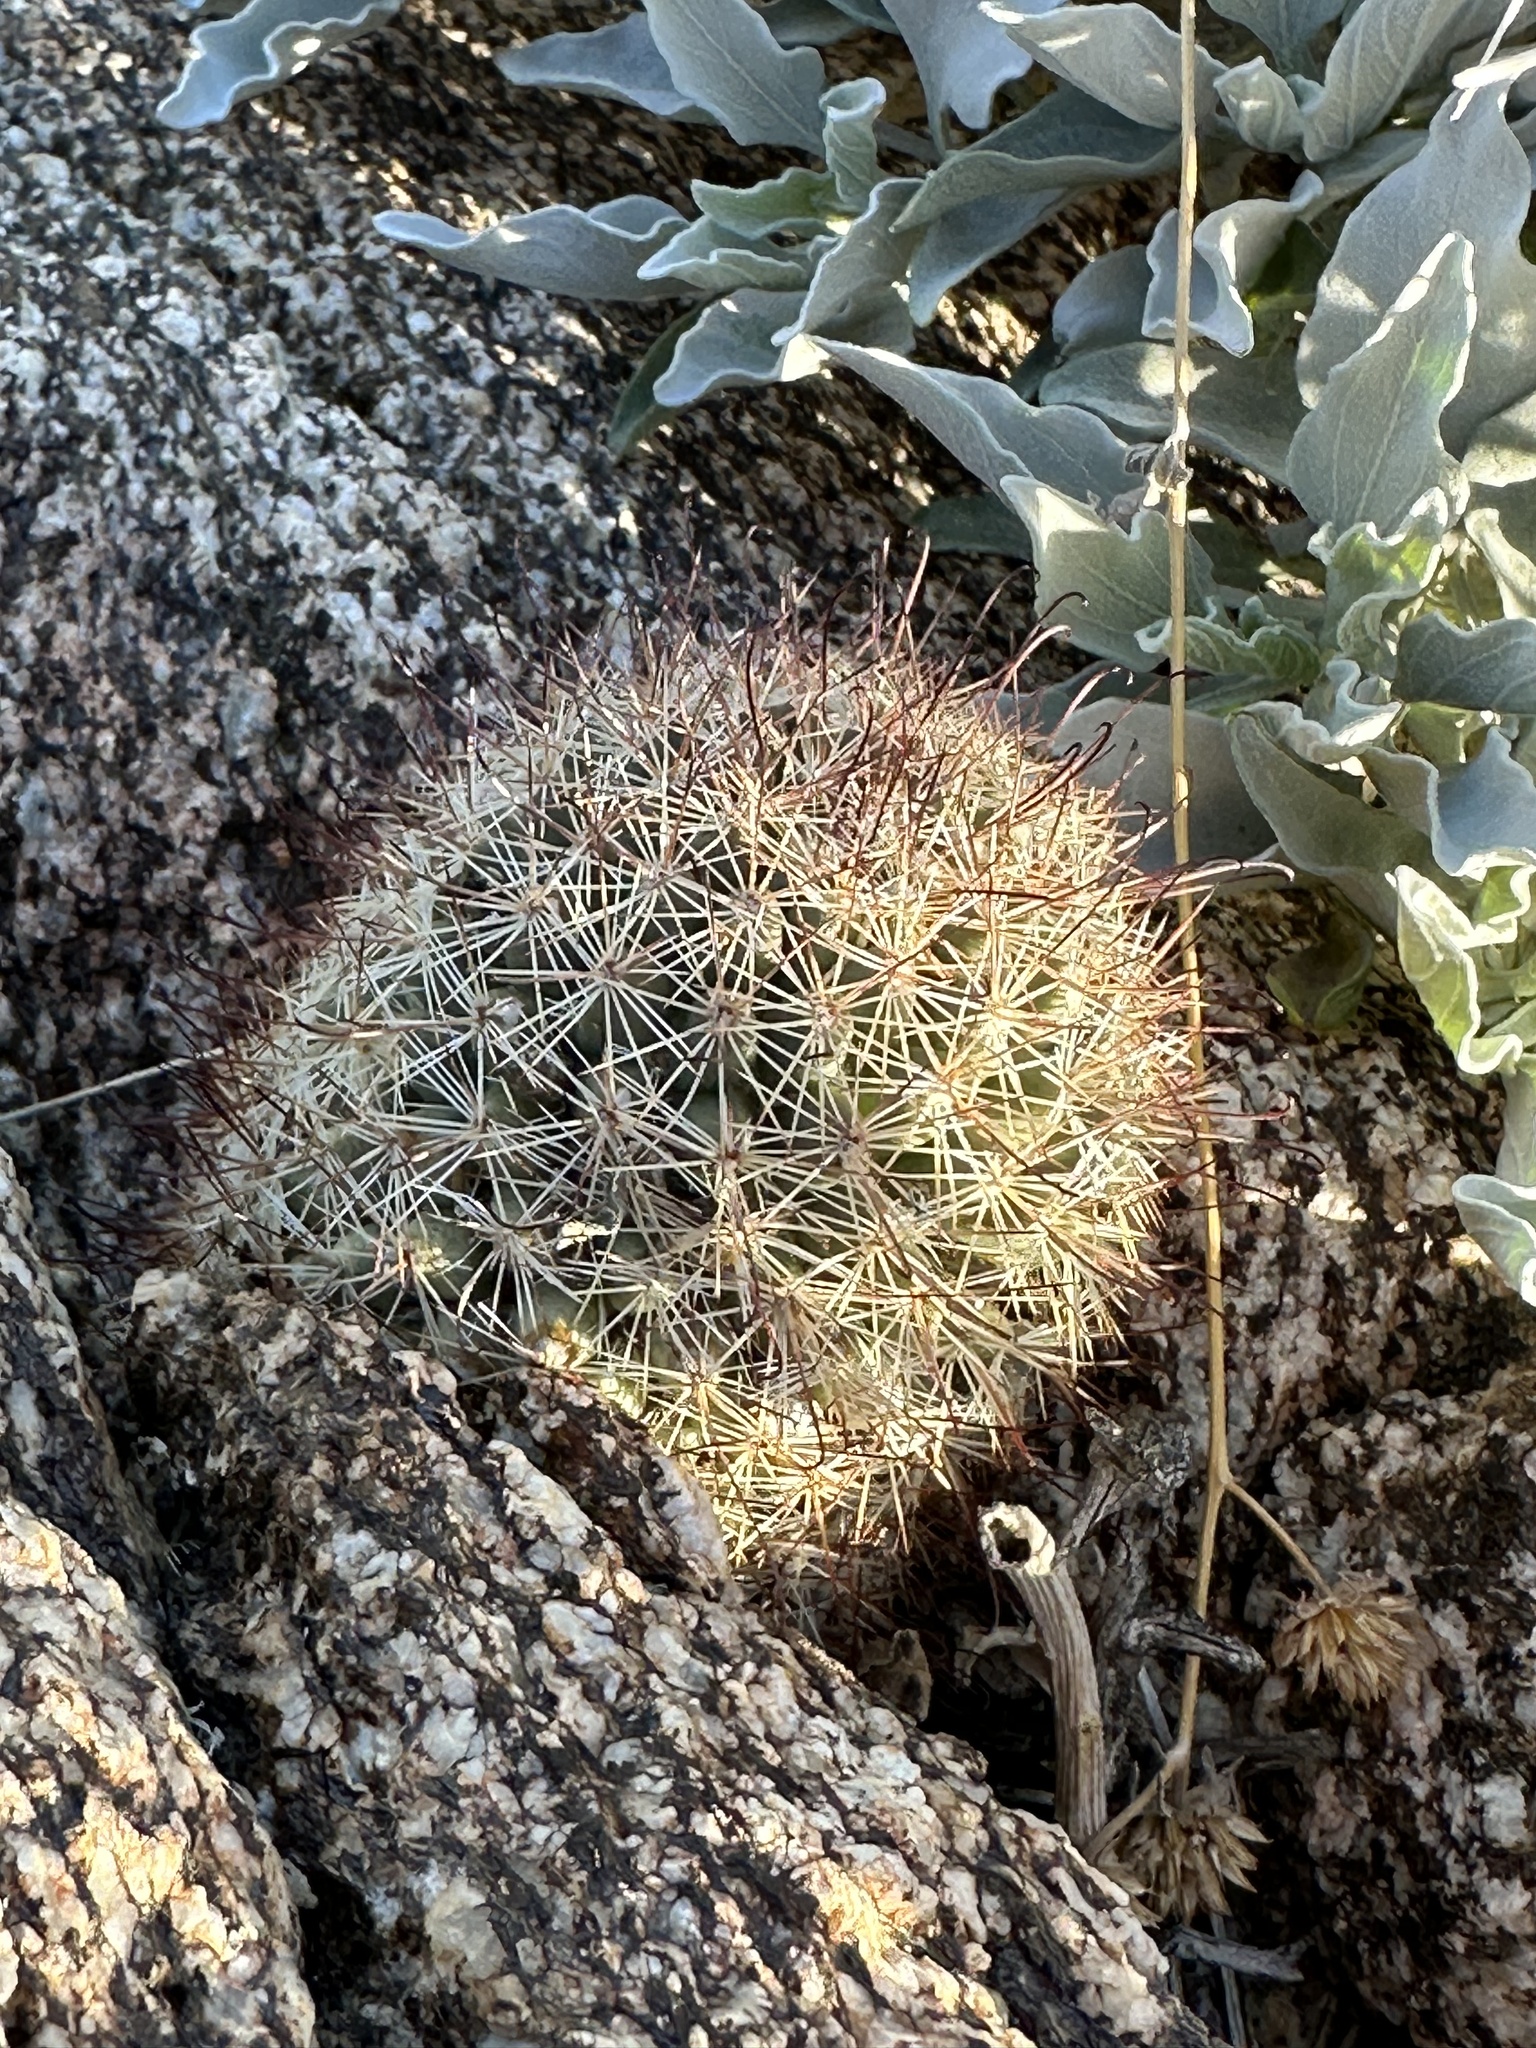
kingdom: Plantae
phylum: Tracheophyta
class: Magnoliopsida
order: Caryophyllales
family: Cactaceae
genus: Cochemiea
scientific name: Cochemiea dioica
